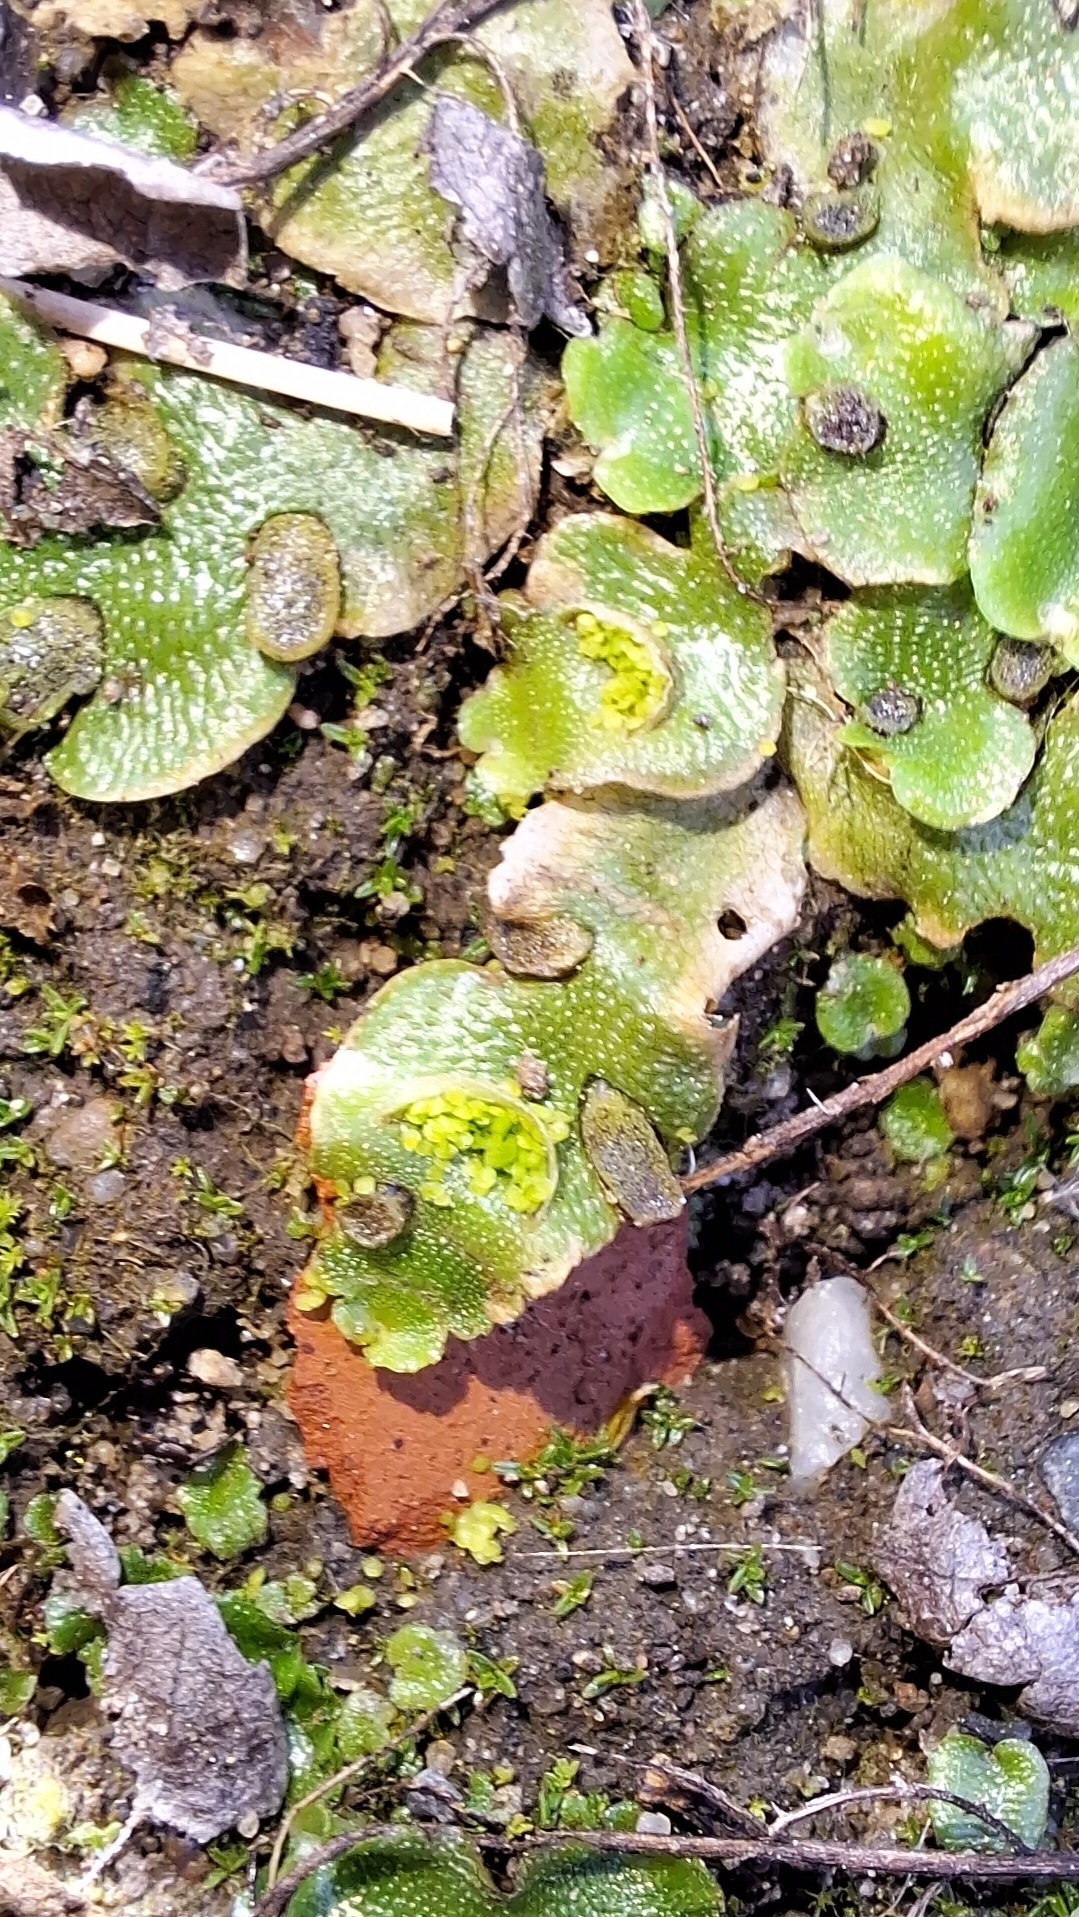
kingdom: Plantae
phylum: Marchantiophyta
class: Marchantiopsida
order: Lunulariales
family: Lunulariaceae
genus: Lunularia
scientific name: Lunularia cruciata
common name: Crescent-cup liverwort
